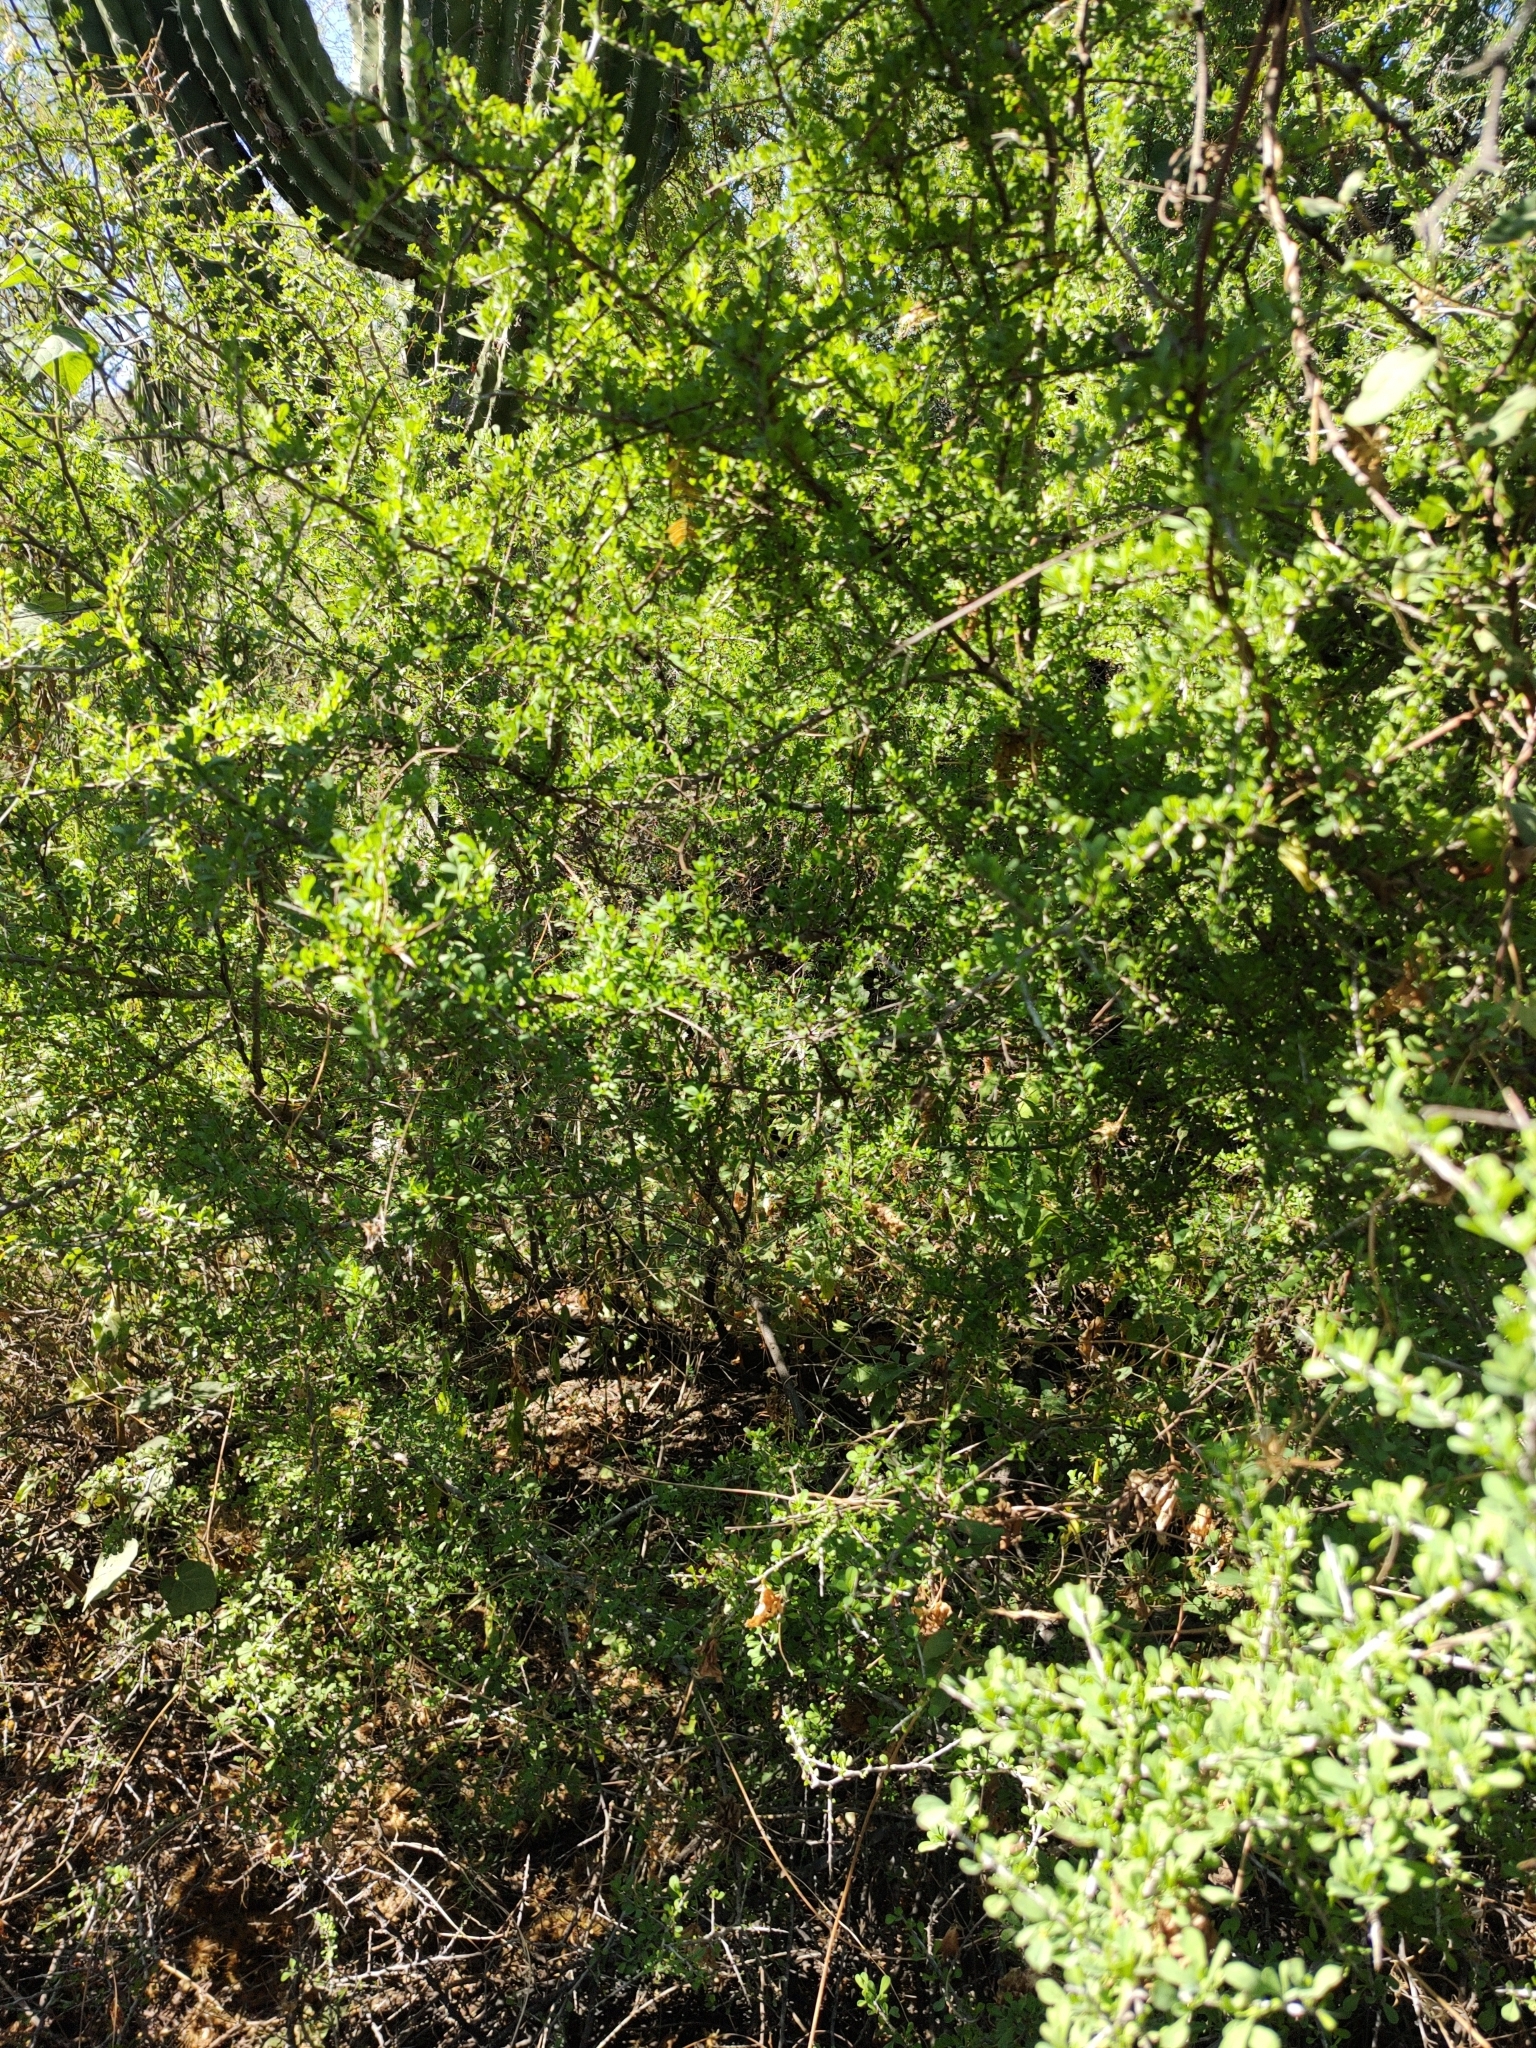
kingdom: Plantae
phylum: Tracheophyta
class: Magnoliopsida
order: Rosales
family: Rhamnaceae
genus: Condalia
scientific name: Condalia globosa
